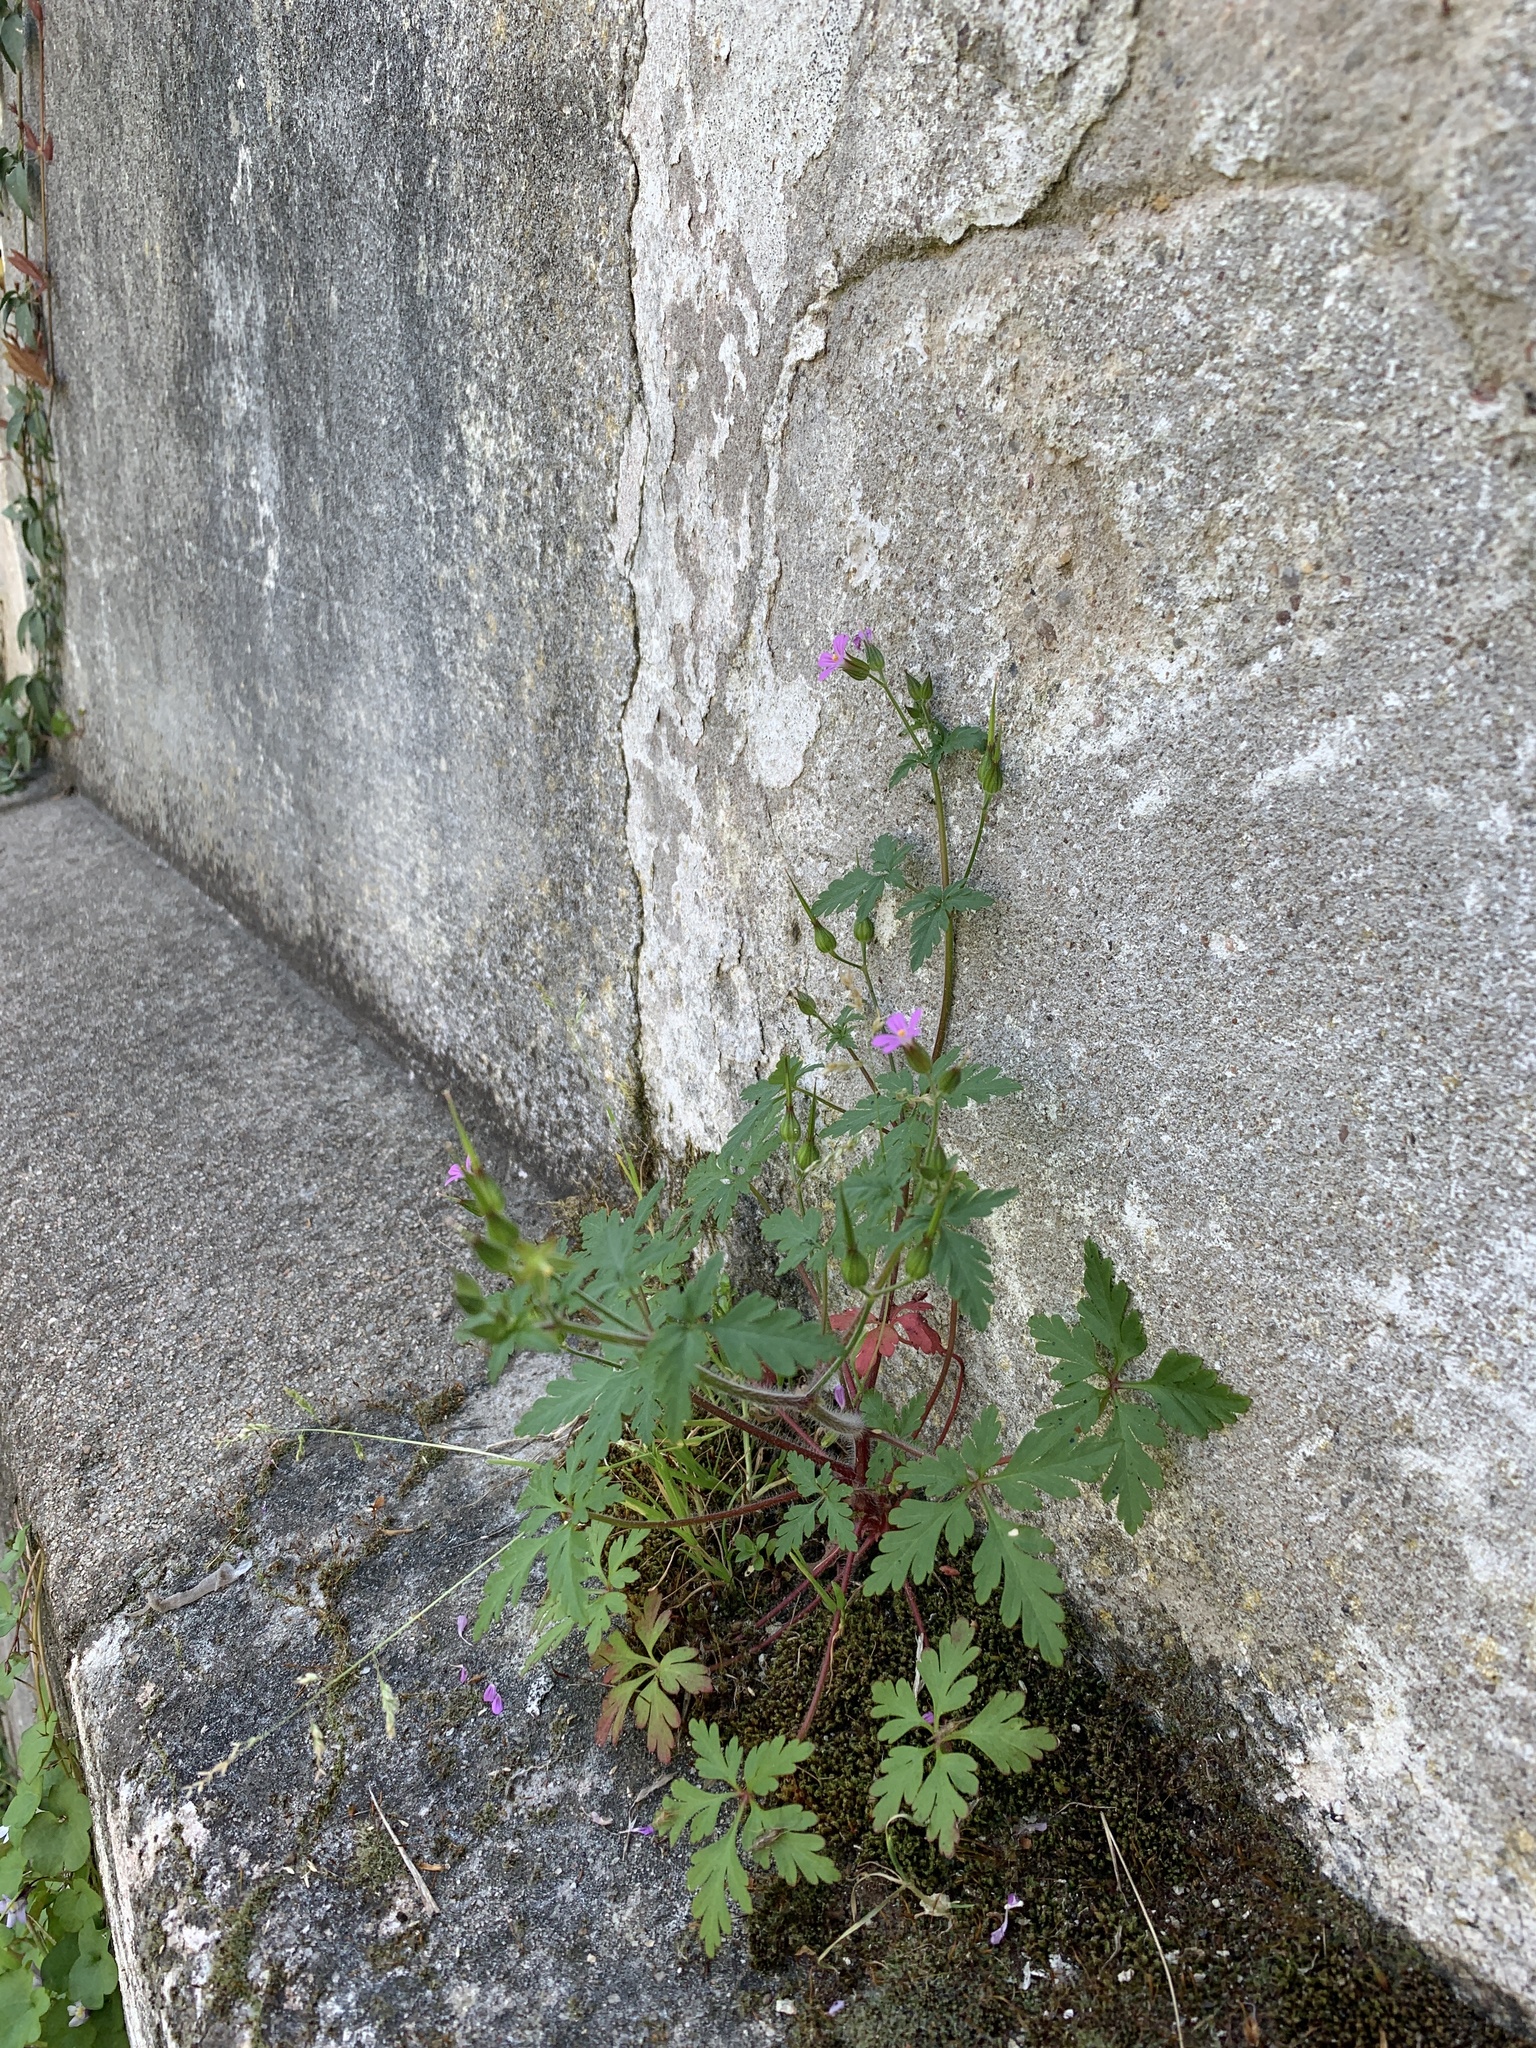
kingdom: Plantae
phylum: Tracheophyta
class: Magnoliopsida
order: Geraniales
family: Geraniaceae
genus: Geranium
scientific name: Geranium purpureum
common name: Little-robin
